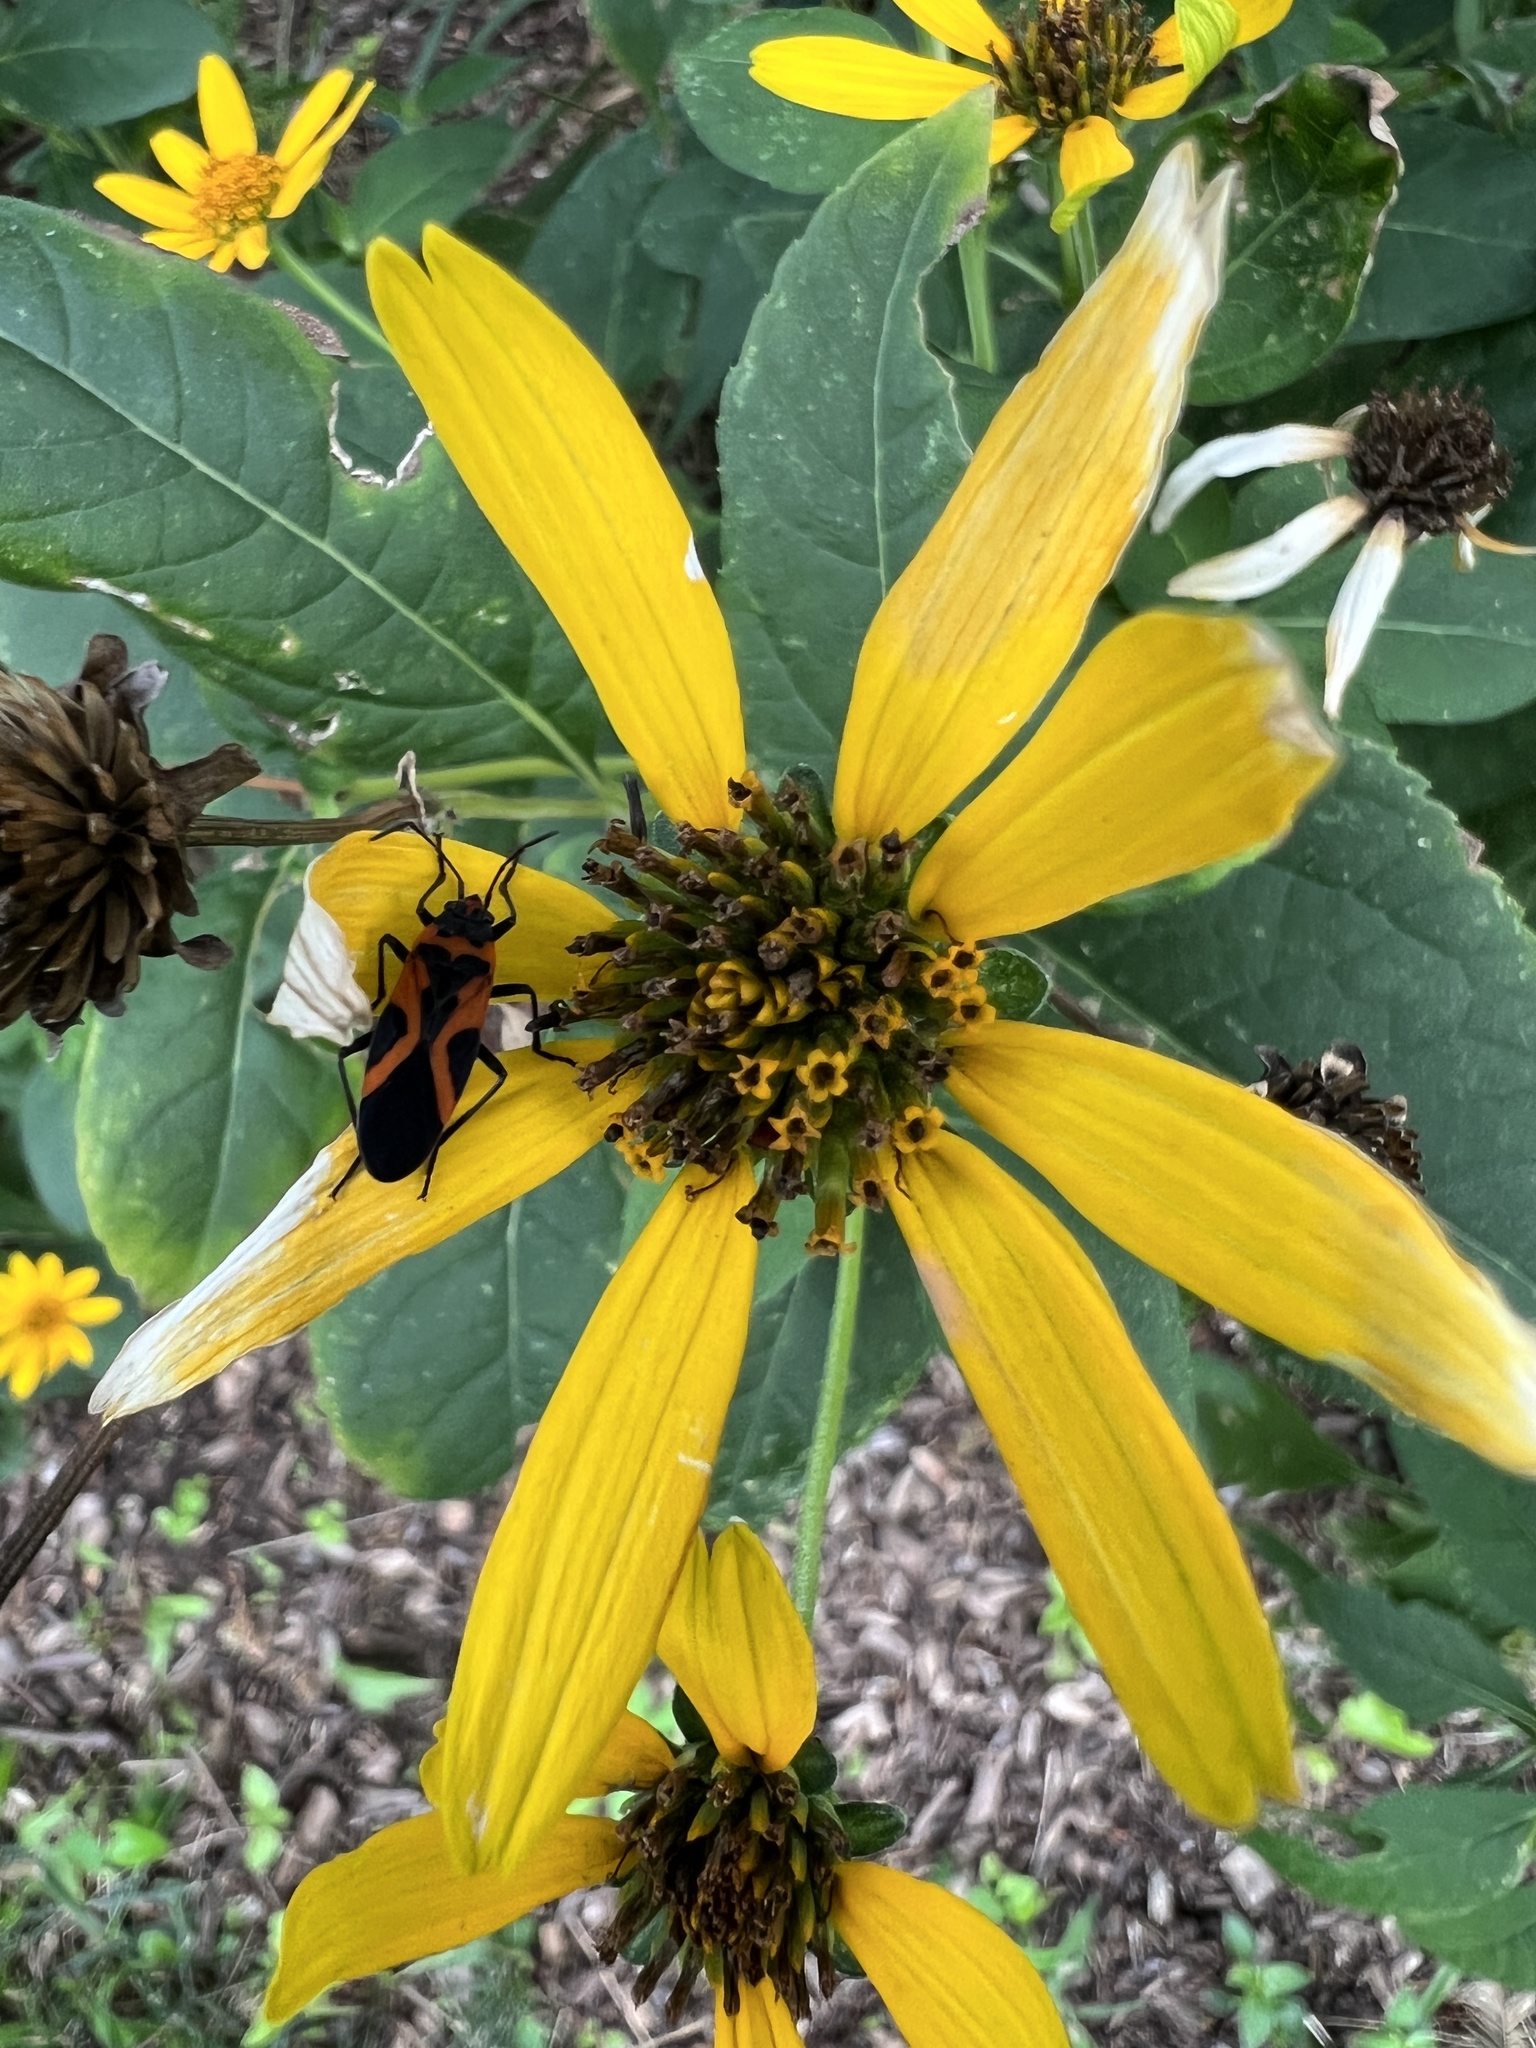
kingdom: Animalia
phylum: Arthropoda
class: Insecta
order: Hemiptera
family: Lygaeidae
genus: Lygaeus
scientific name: Lygaeus turcicus
